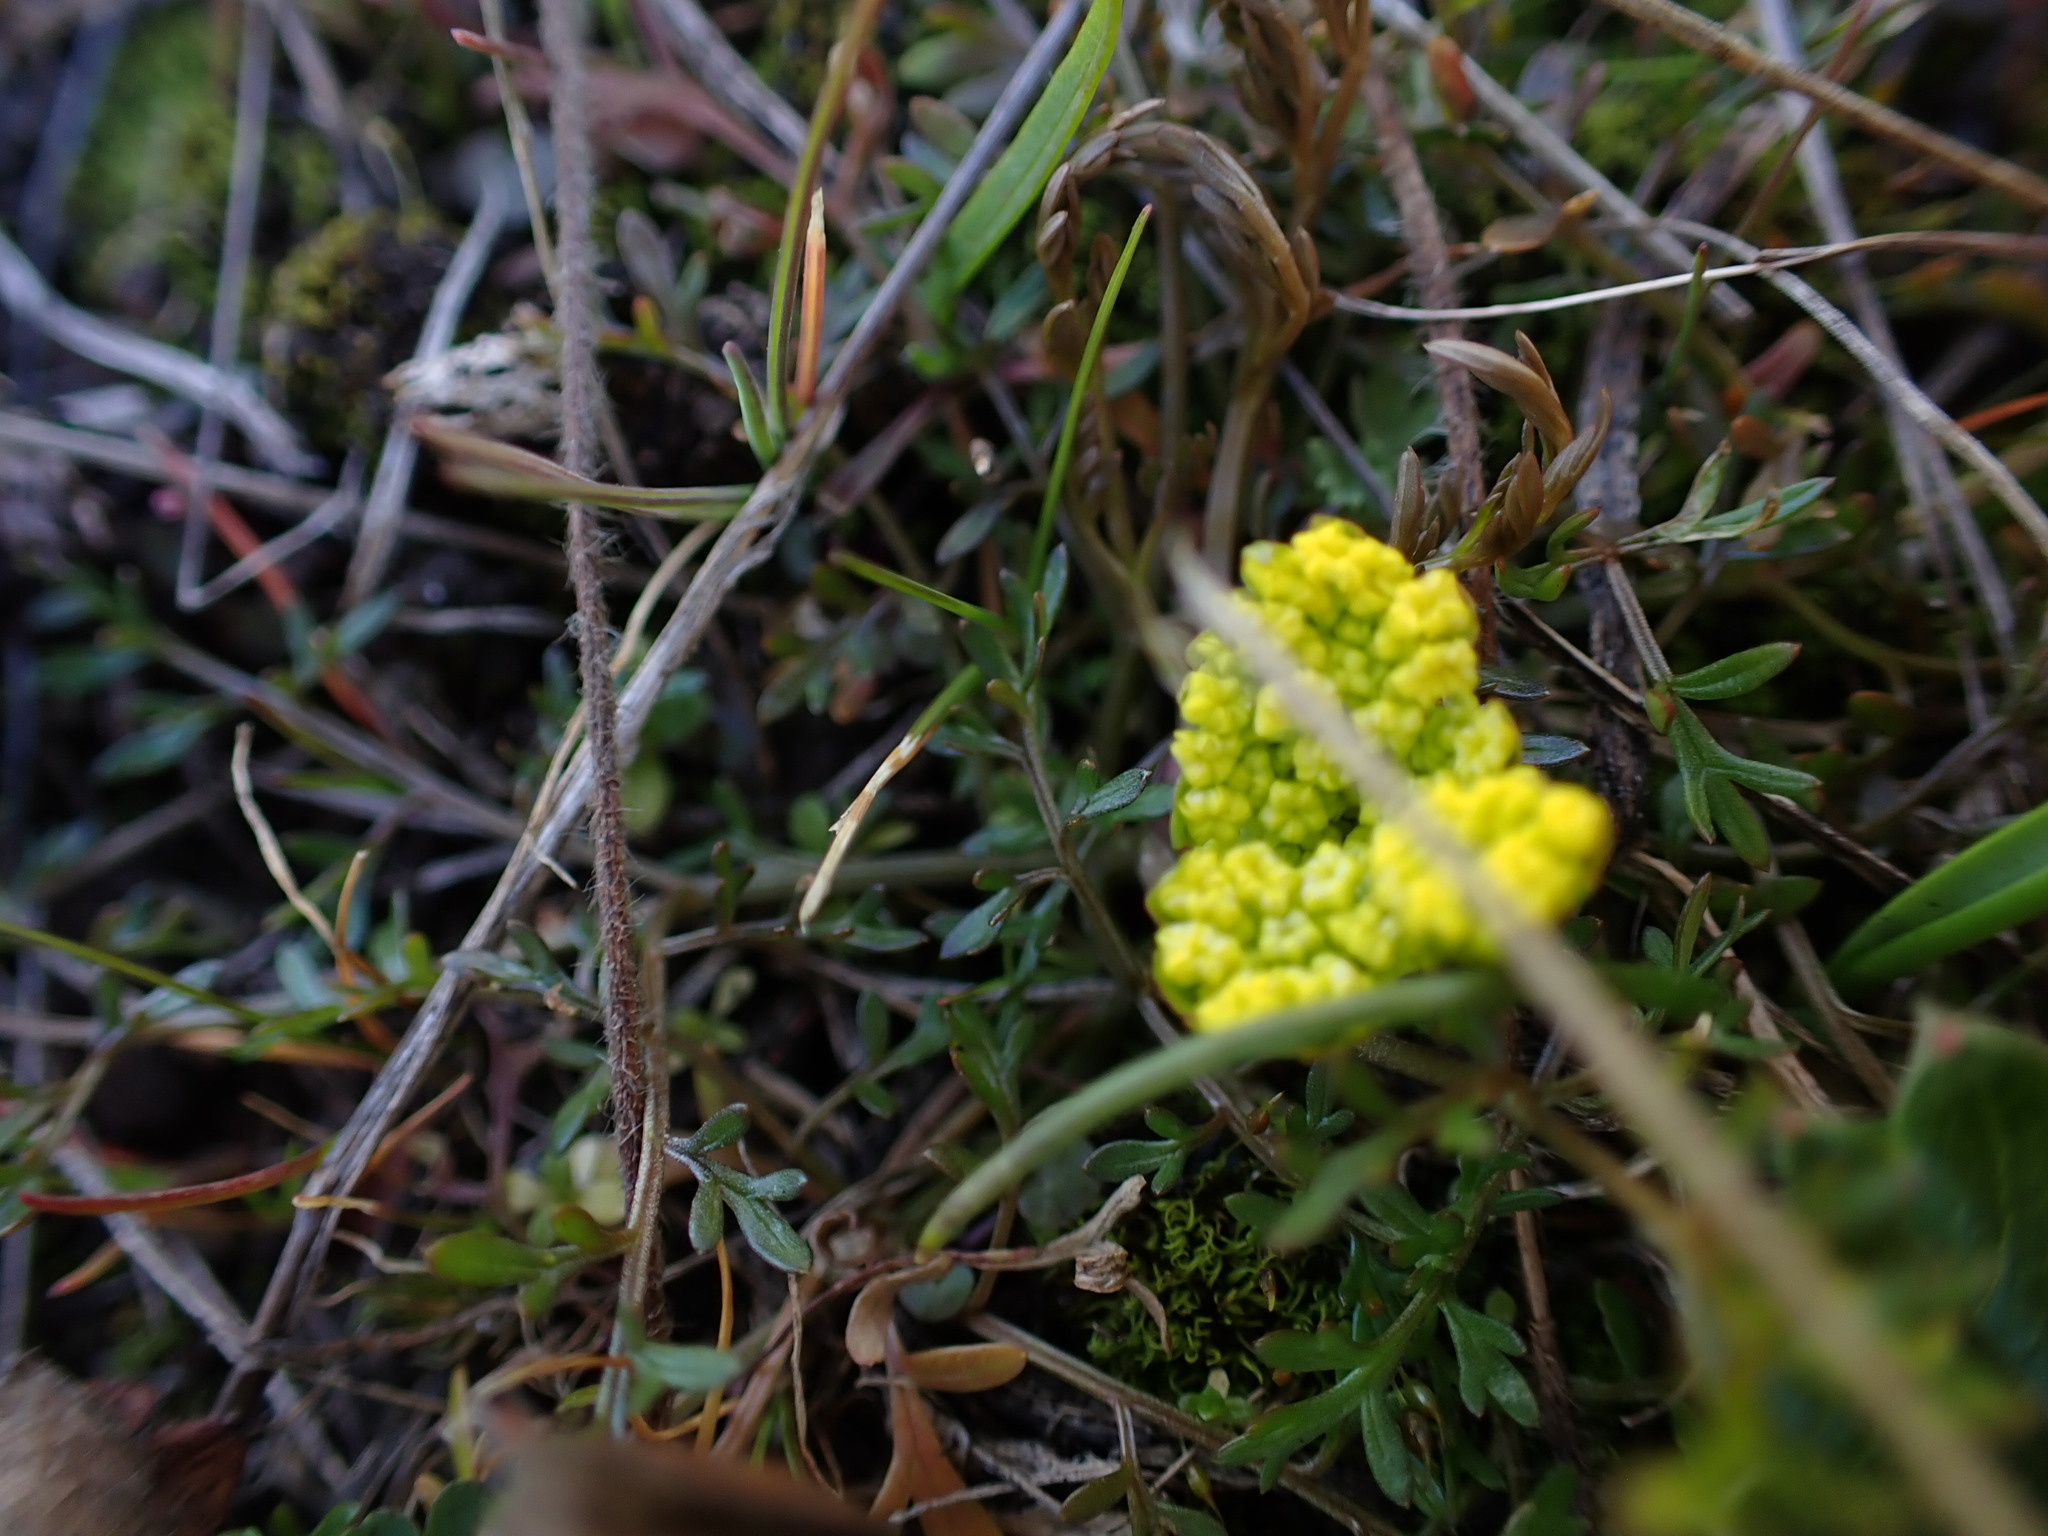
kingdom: Plantae
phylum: Tracheophyta
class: Magnoliopsida
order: Apiales
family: Apiaceae
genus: Lomatium
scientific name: Lomatium utriculatum
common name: Fine-leaf desert-parsley
